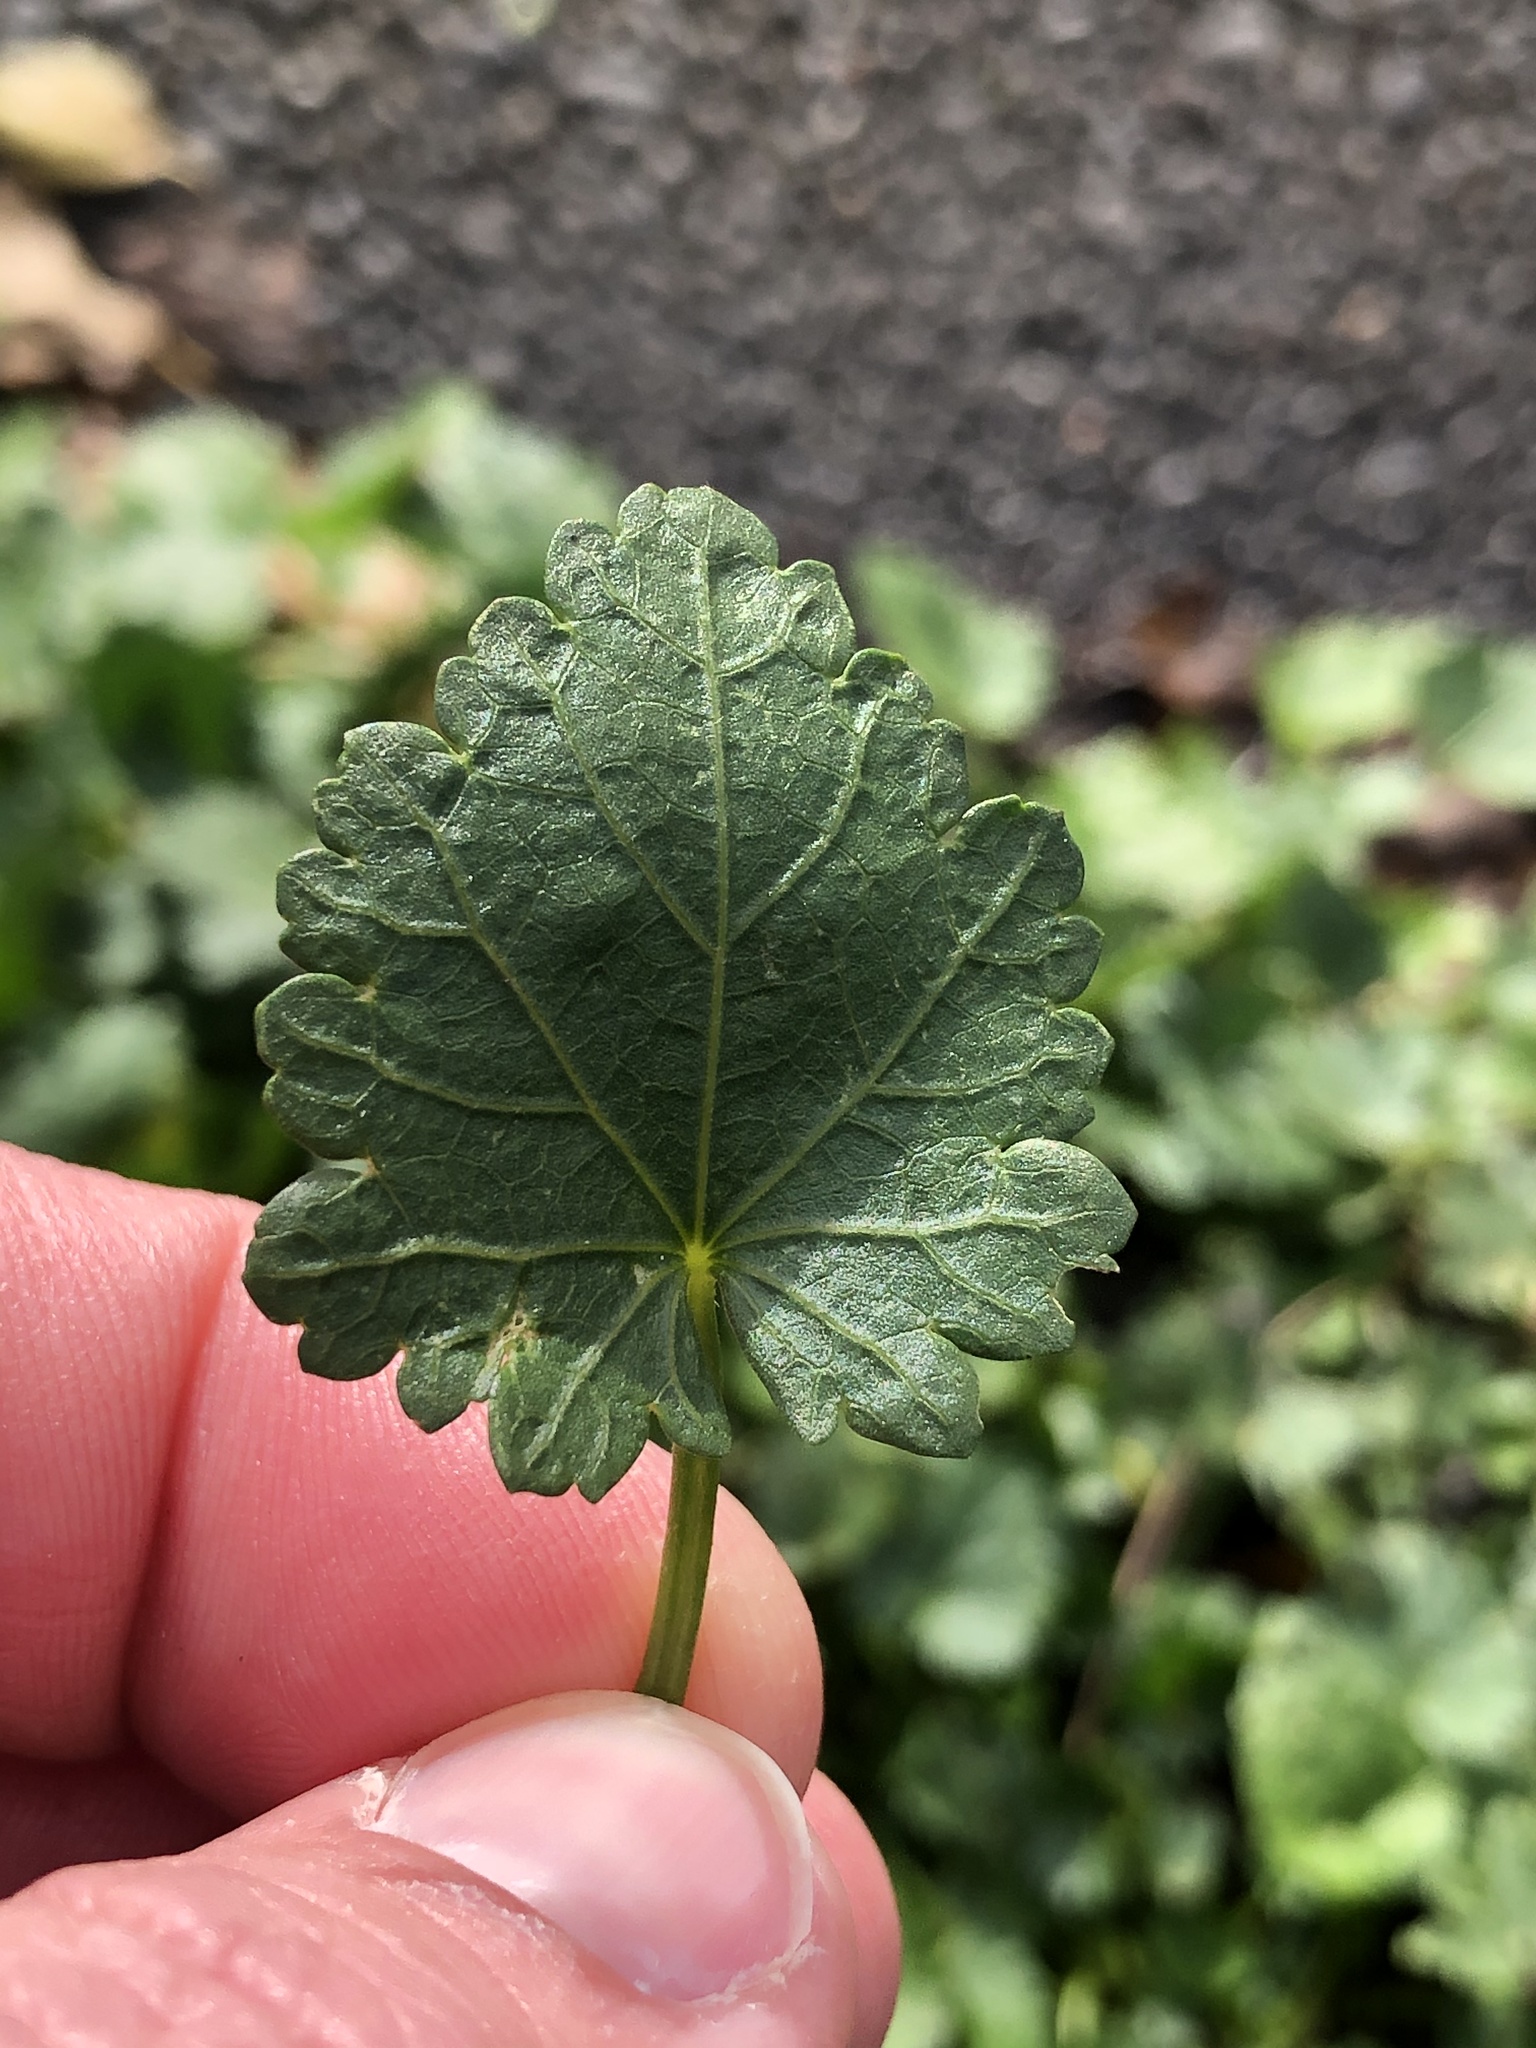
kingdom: Plantae
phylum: Tracheophyta
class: Magnoliopsida
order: Malvales
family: Malvaceae
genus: Modiola
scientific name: Modiola caroliniana
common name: Carolina bristlemallow
